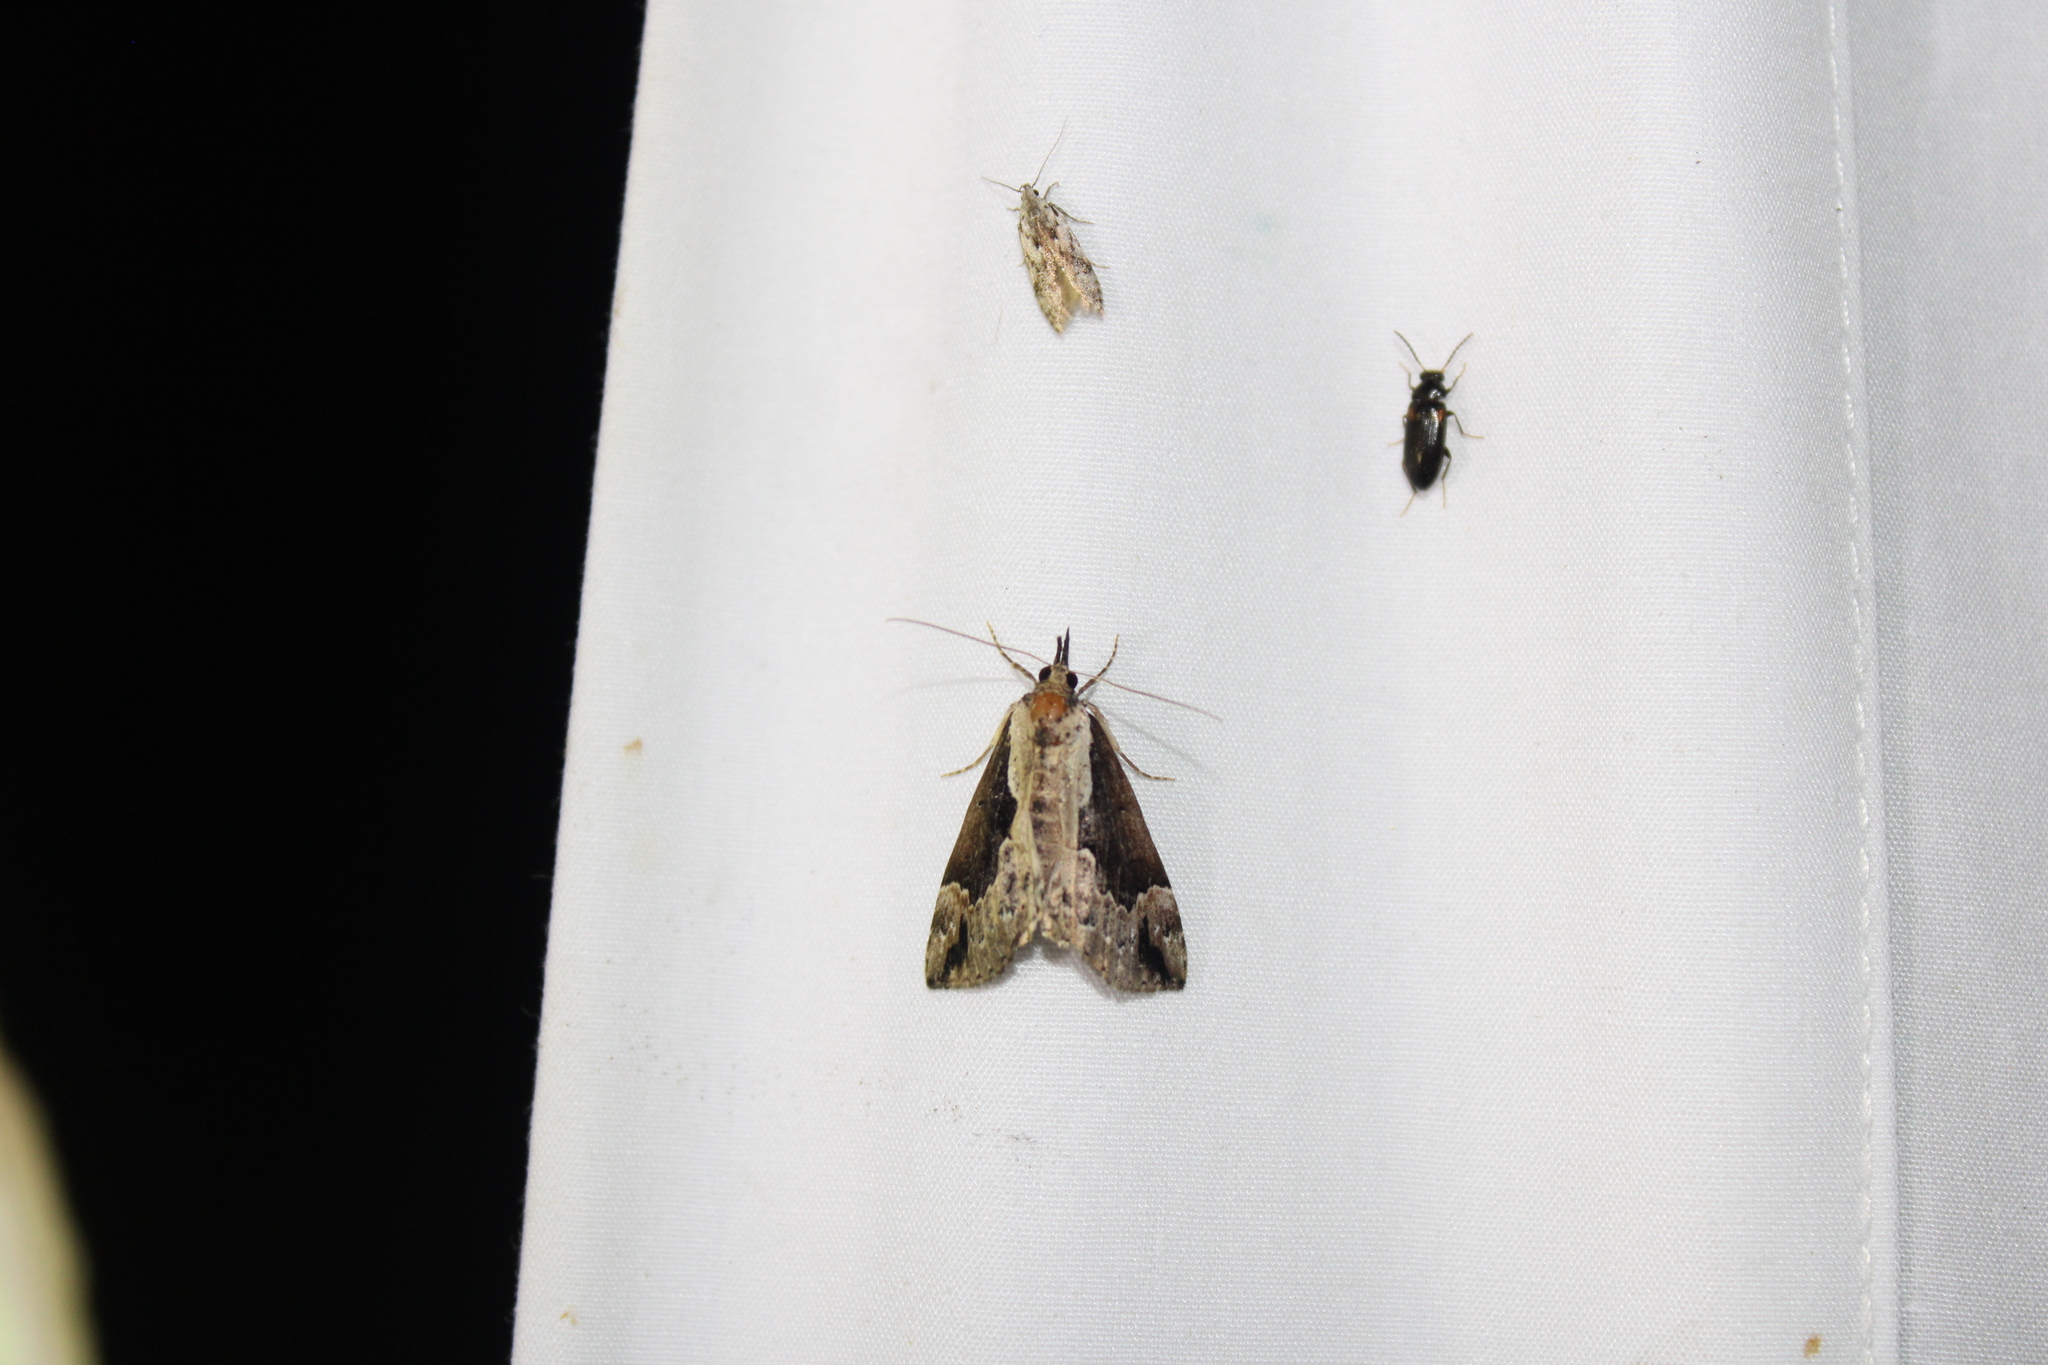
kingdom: Animalia
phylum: Arthropoda
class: Insecta
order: Lepidoptera
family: Erebidae
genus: Hypena
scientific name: Hypena baltimoralis
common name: Baltimore snout
